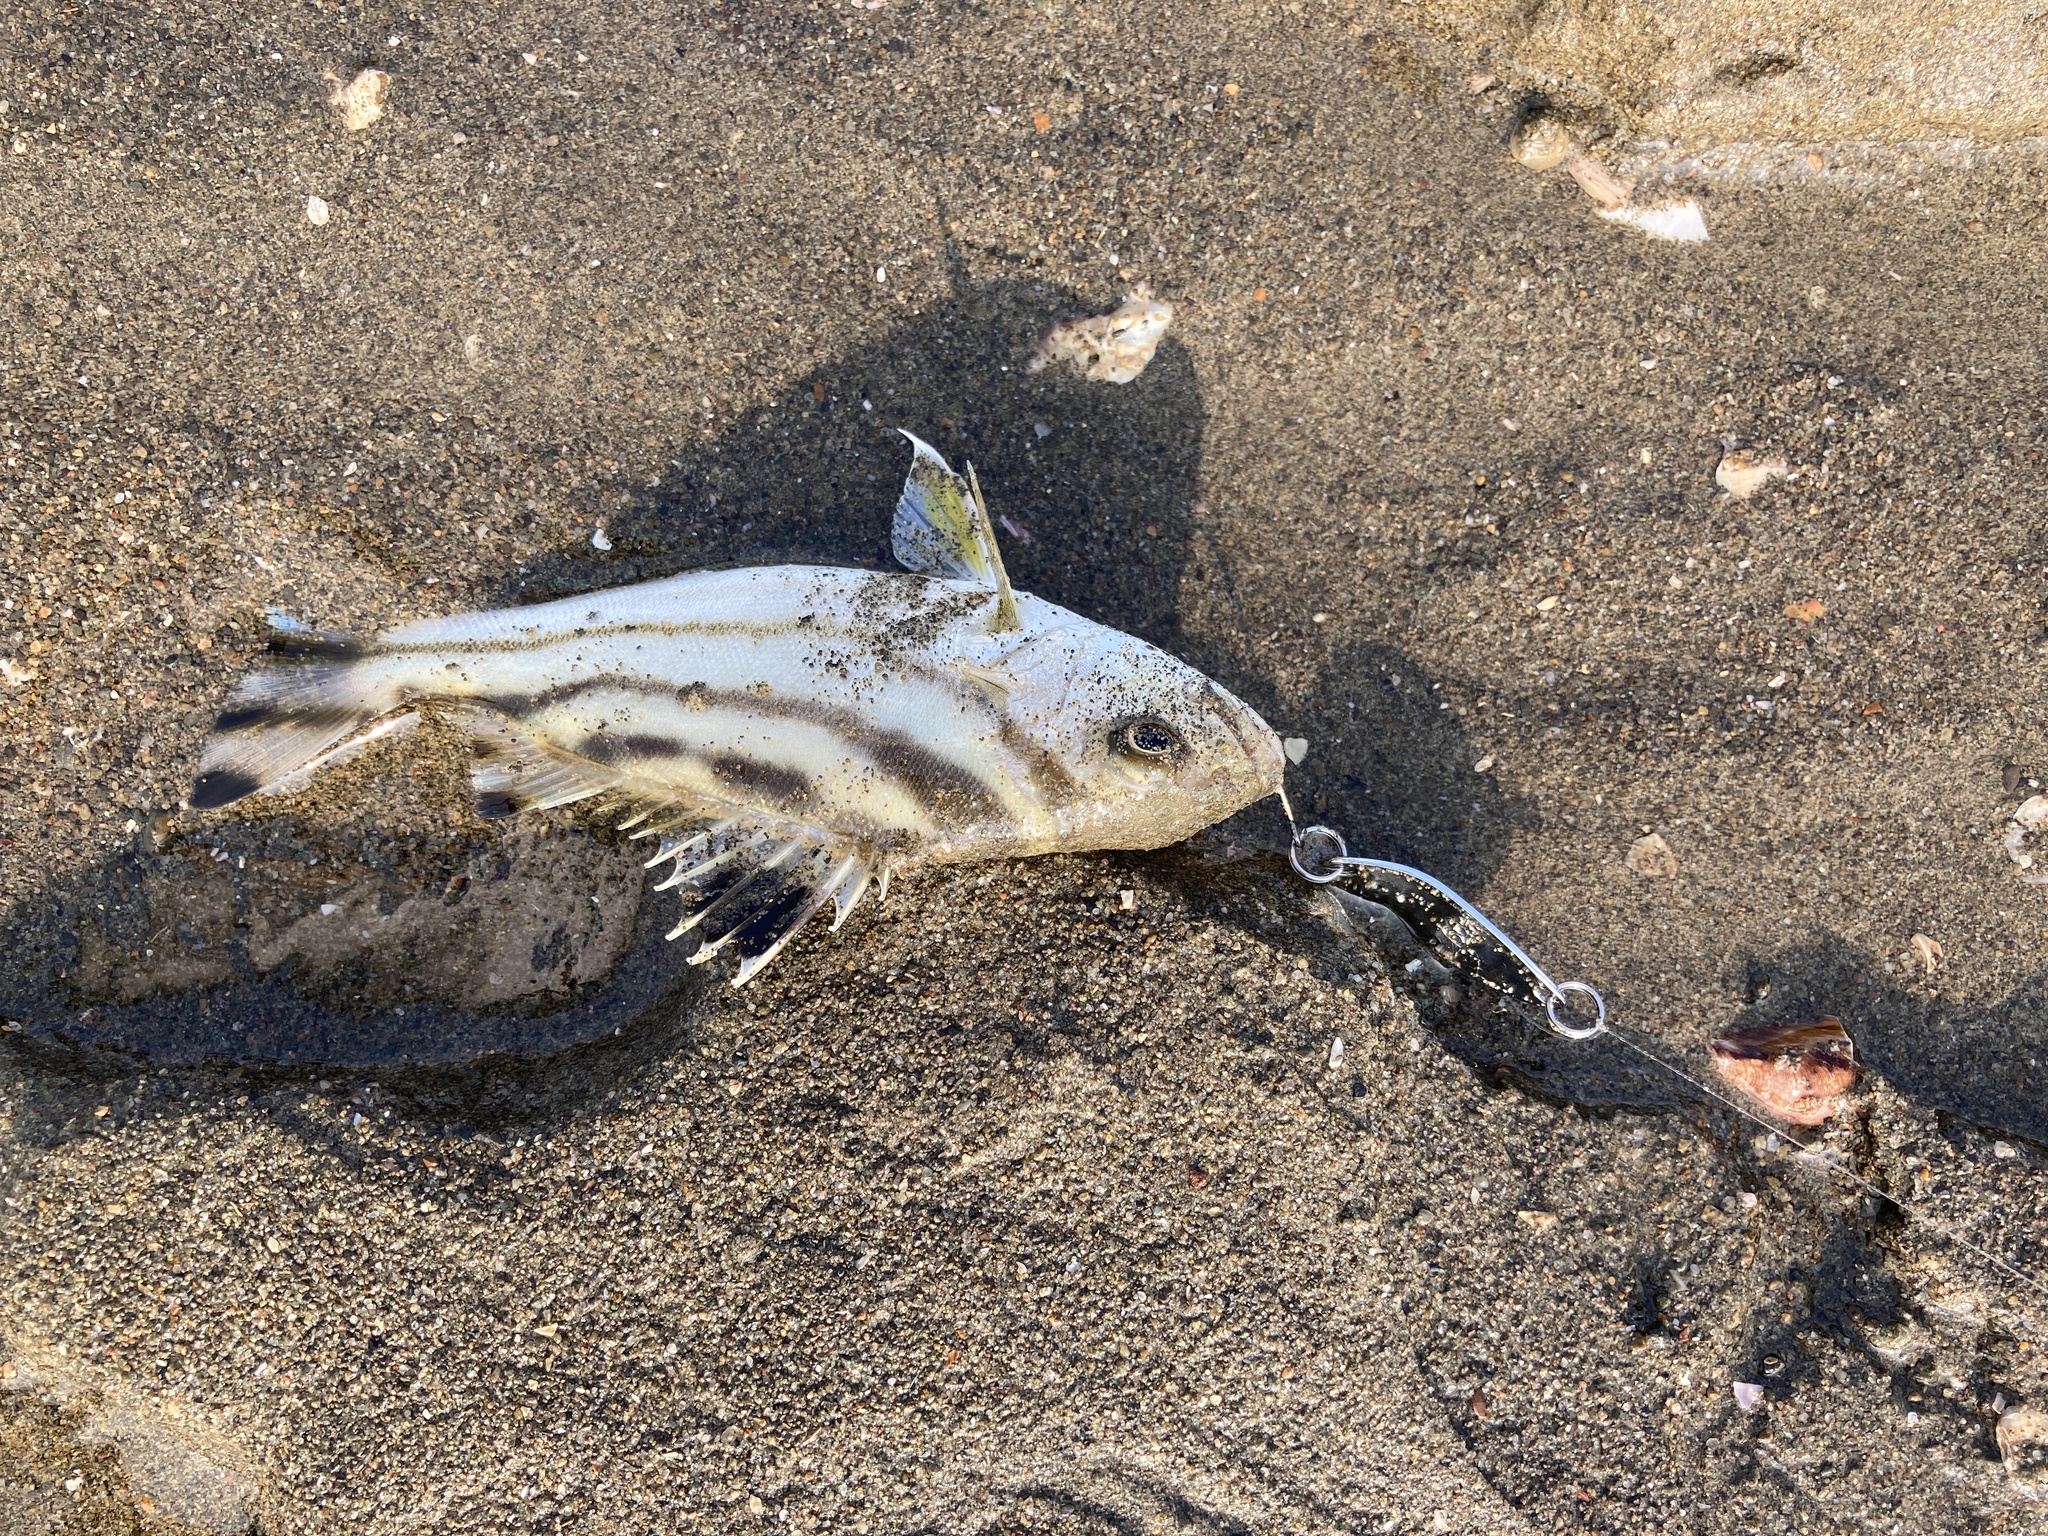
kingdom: Animalia
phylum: Chordata
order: Perciformes
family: Terapontidae
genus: Terapon
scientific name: Terapon jarbua
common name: Jarbua terapon
